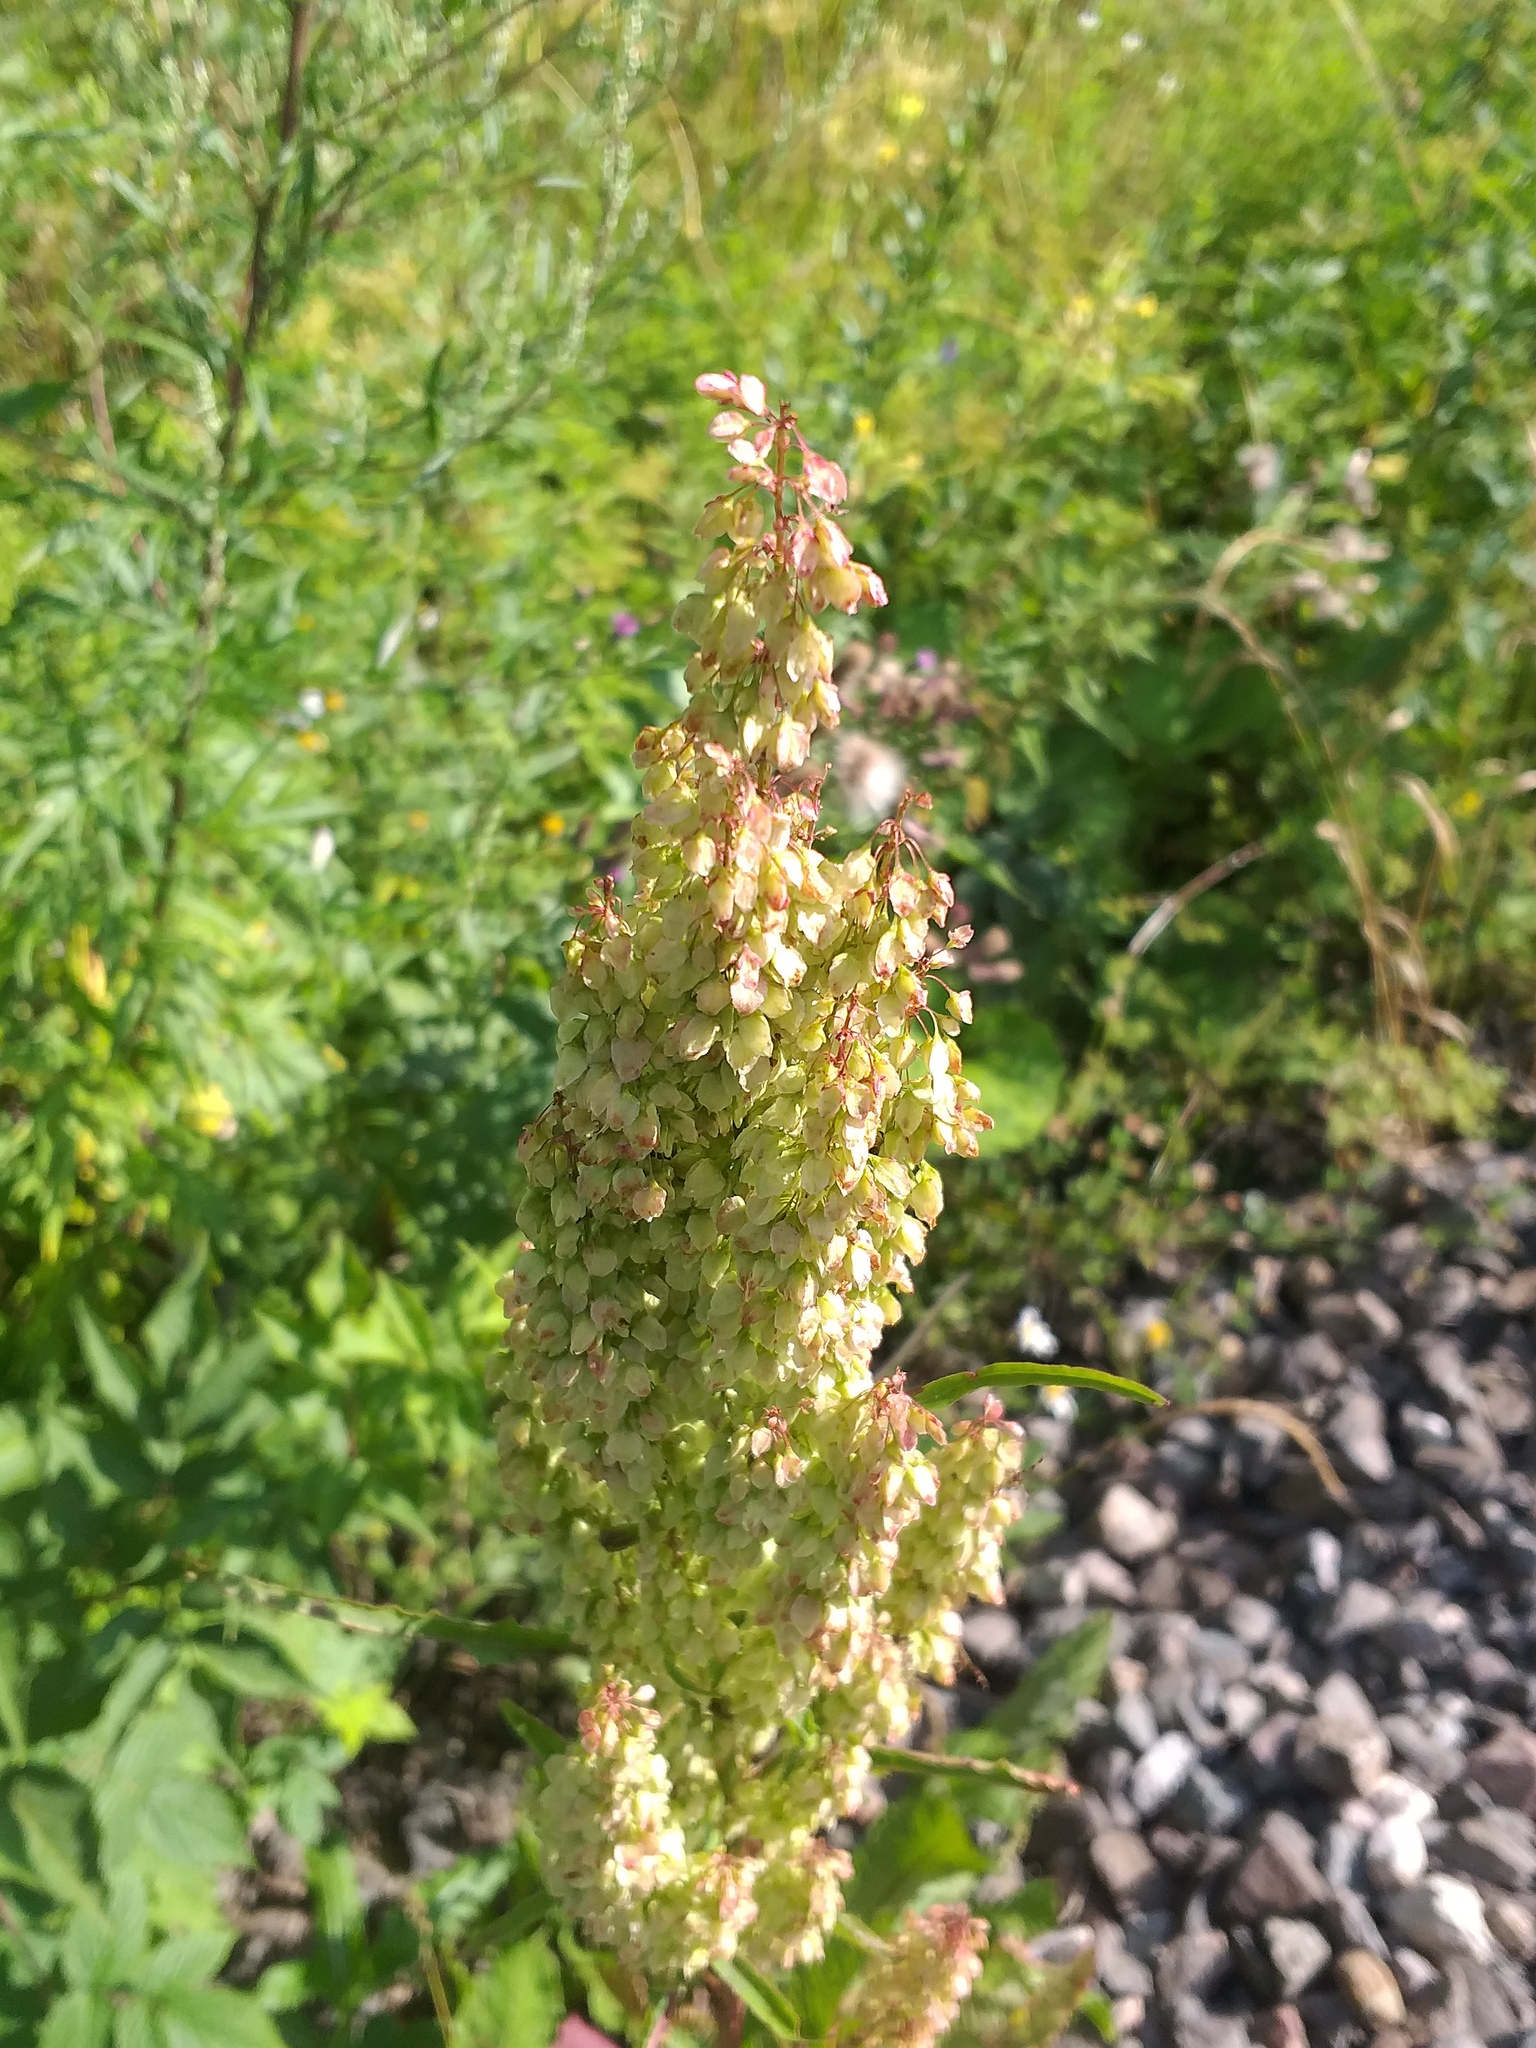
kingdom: Plantae
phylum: Tracheophyta
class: Magnoliopsida
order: Caryophyllales
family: Polygonaceae
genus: Rumex
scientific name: Rumex aquaticus
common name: Scottish dock
